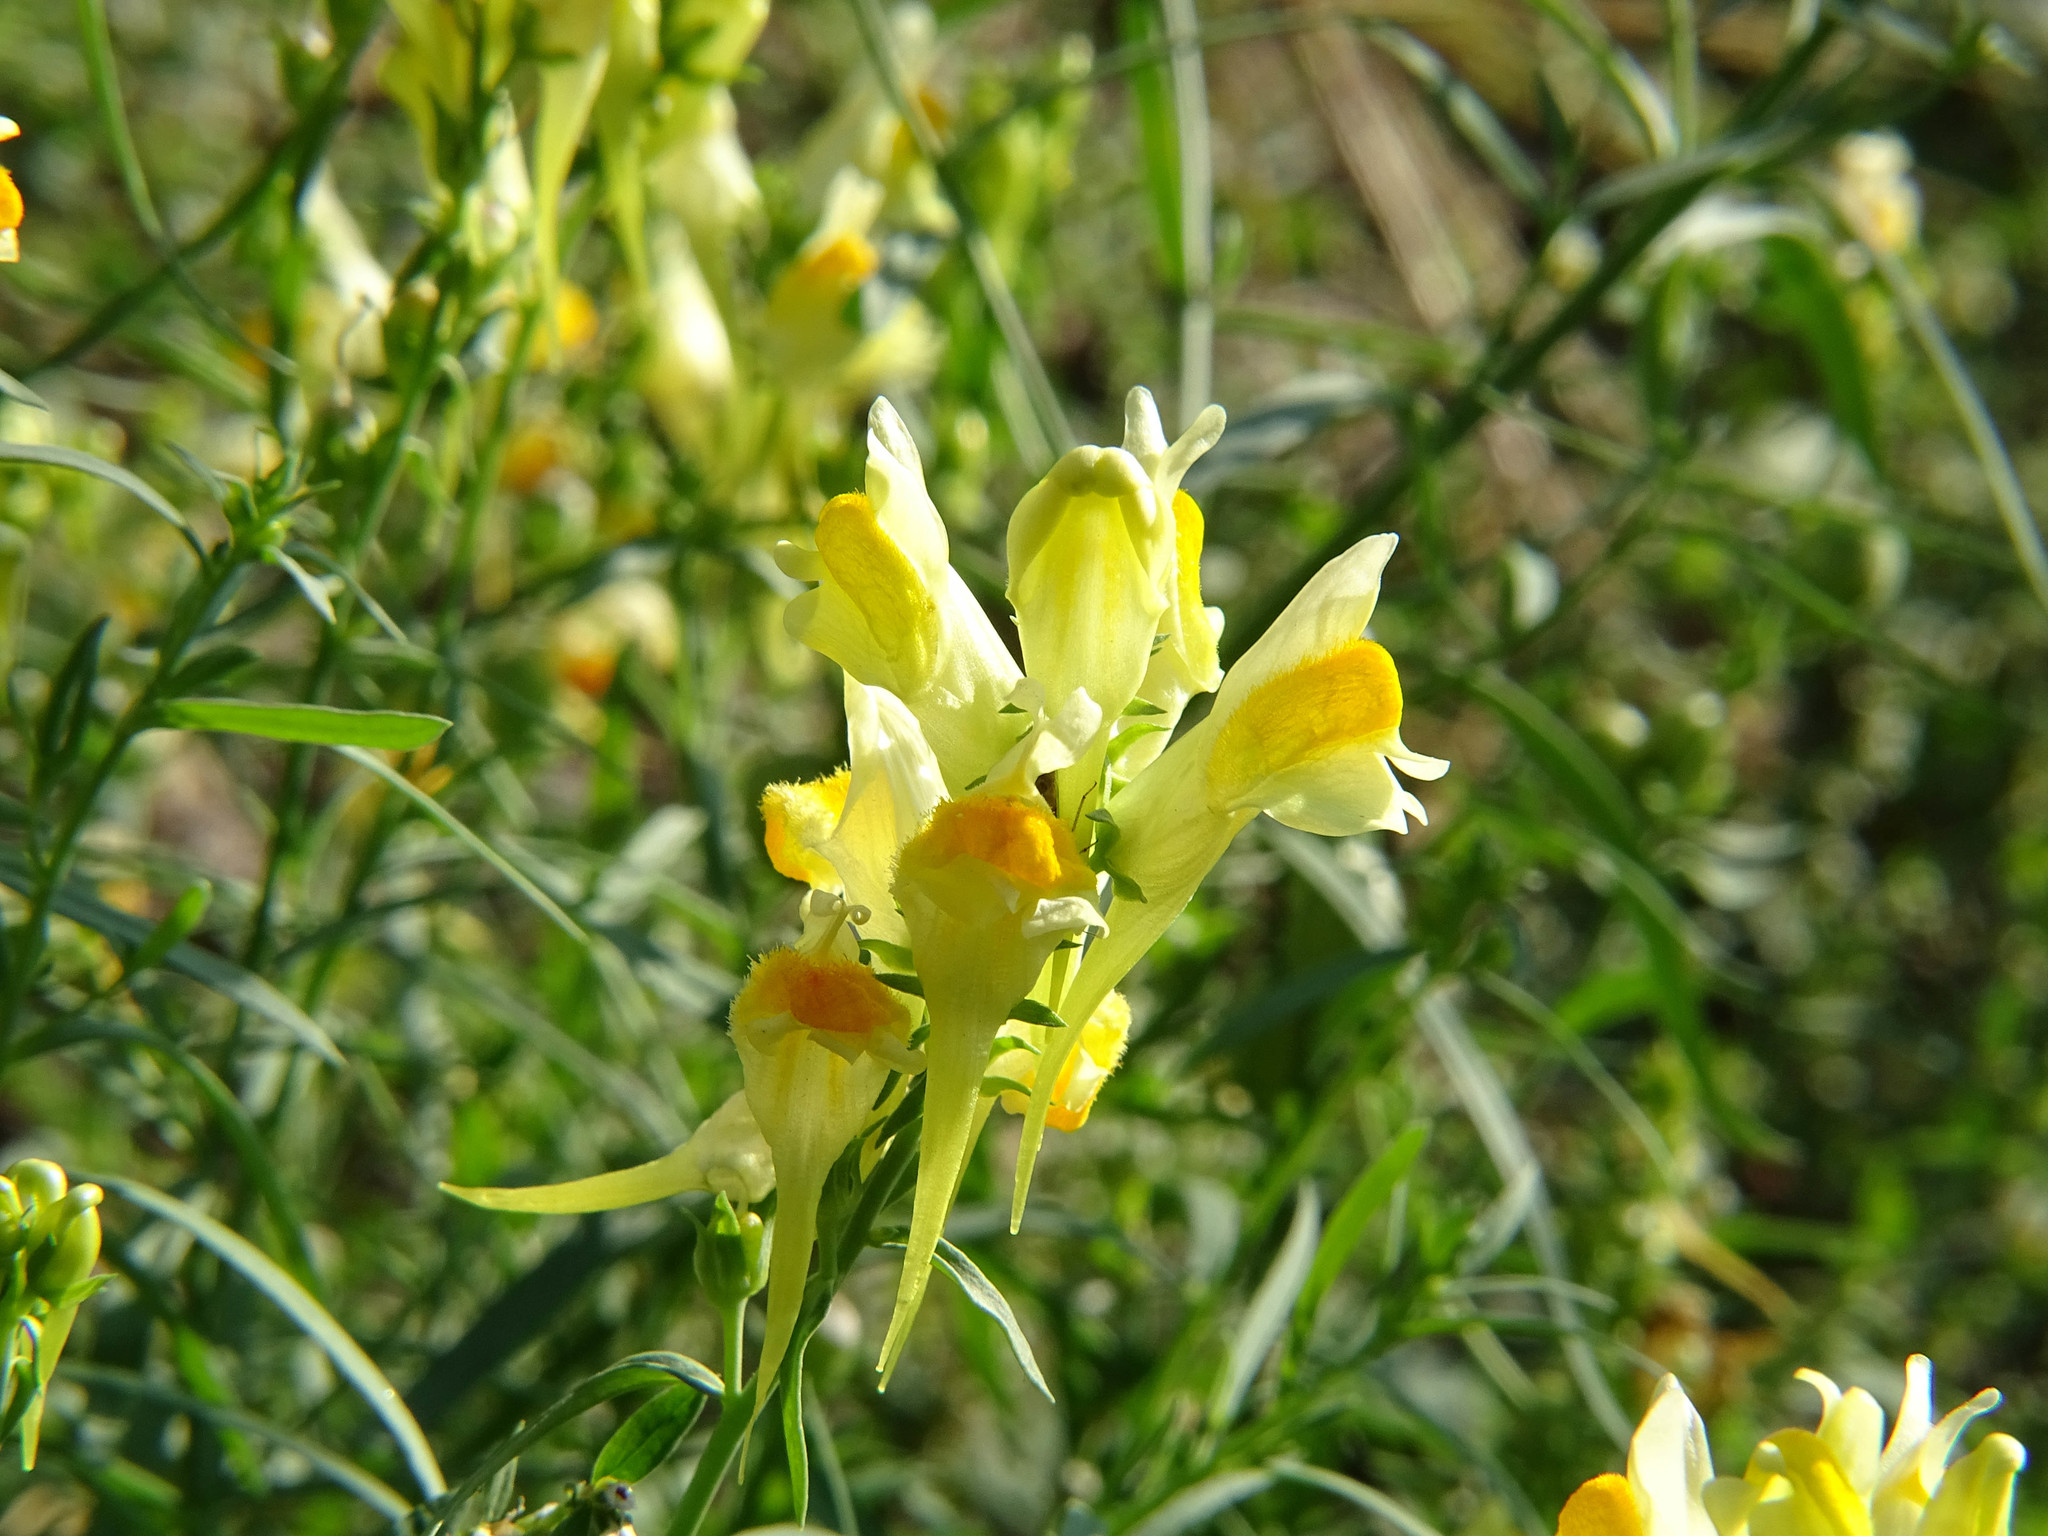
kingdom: Plantae
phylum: Tracheophyta
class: Magnoliopsida
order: Lamiales
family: Plantaginaceae
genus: Linaria
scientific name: Linaria vulgaris
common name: Butter and eggs
